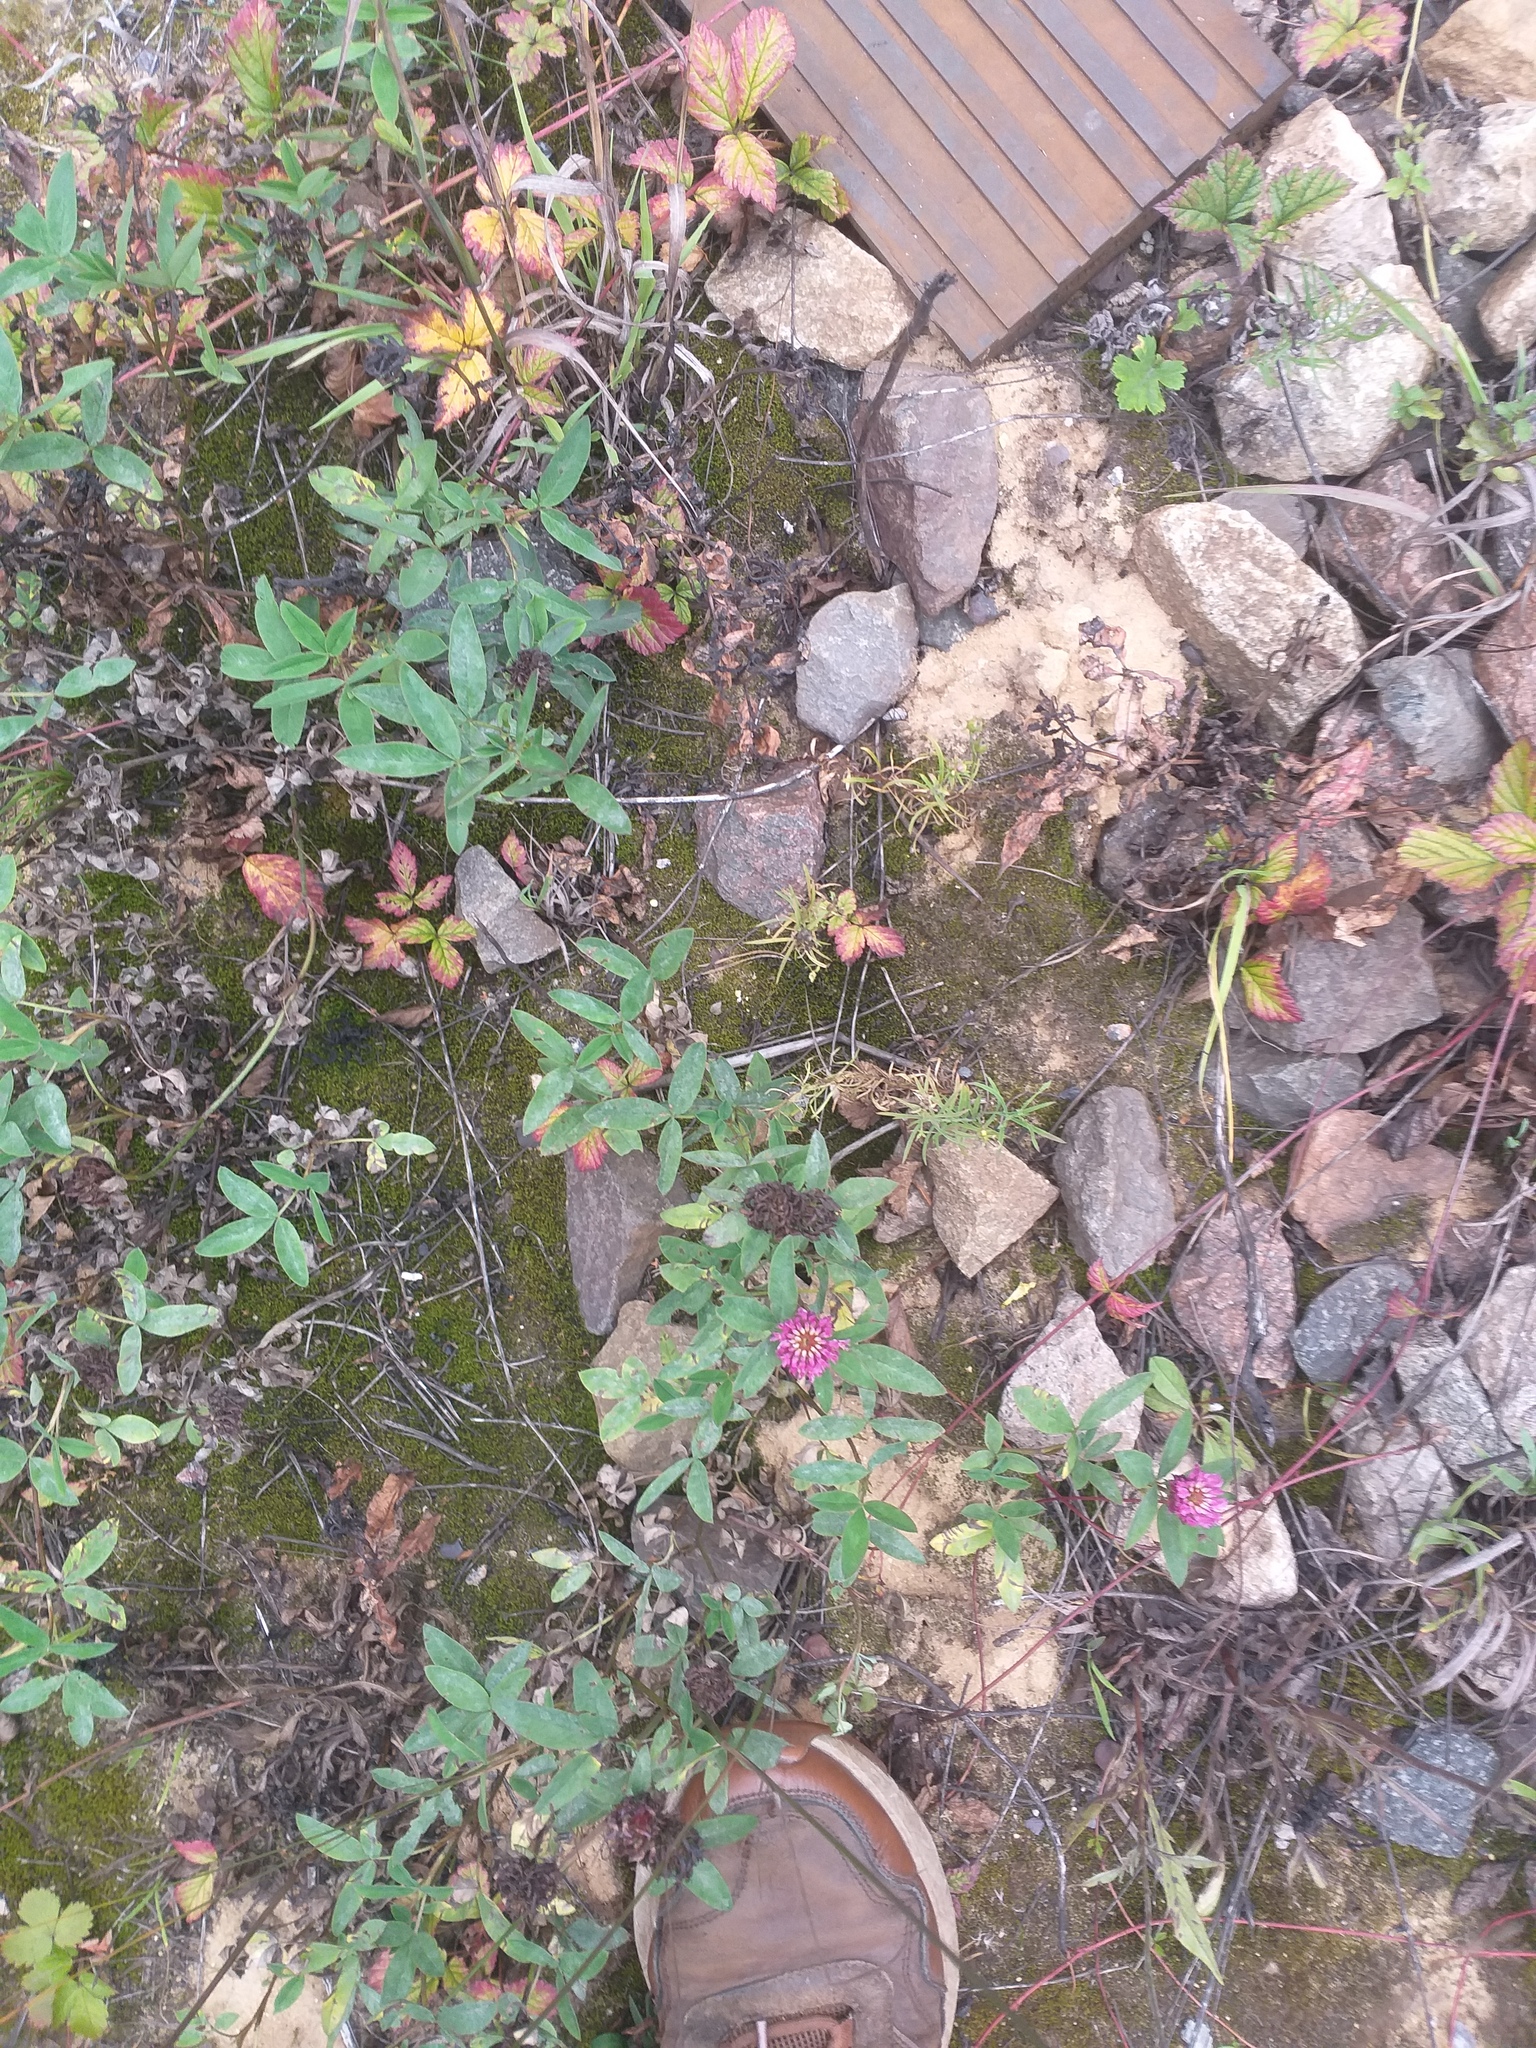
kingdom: Plantae
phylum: Tracheophyta
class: Magnoliopsida
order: Fabales
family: Fabaceae
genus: Trifolium
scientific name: Trifolium medium
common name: Zigzag clover
